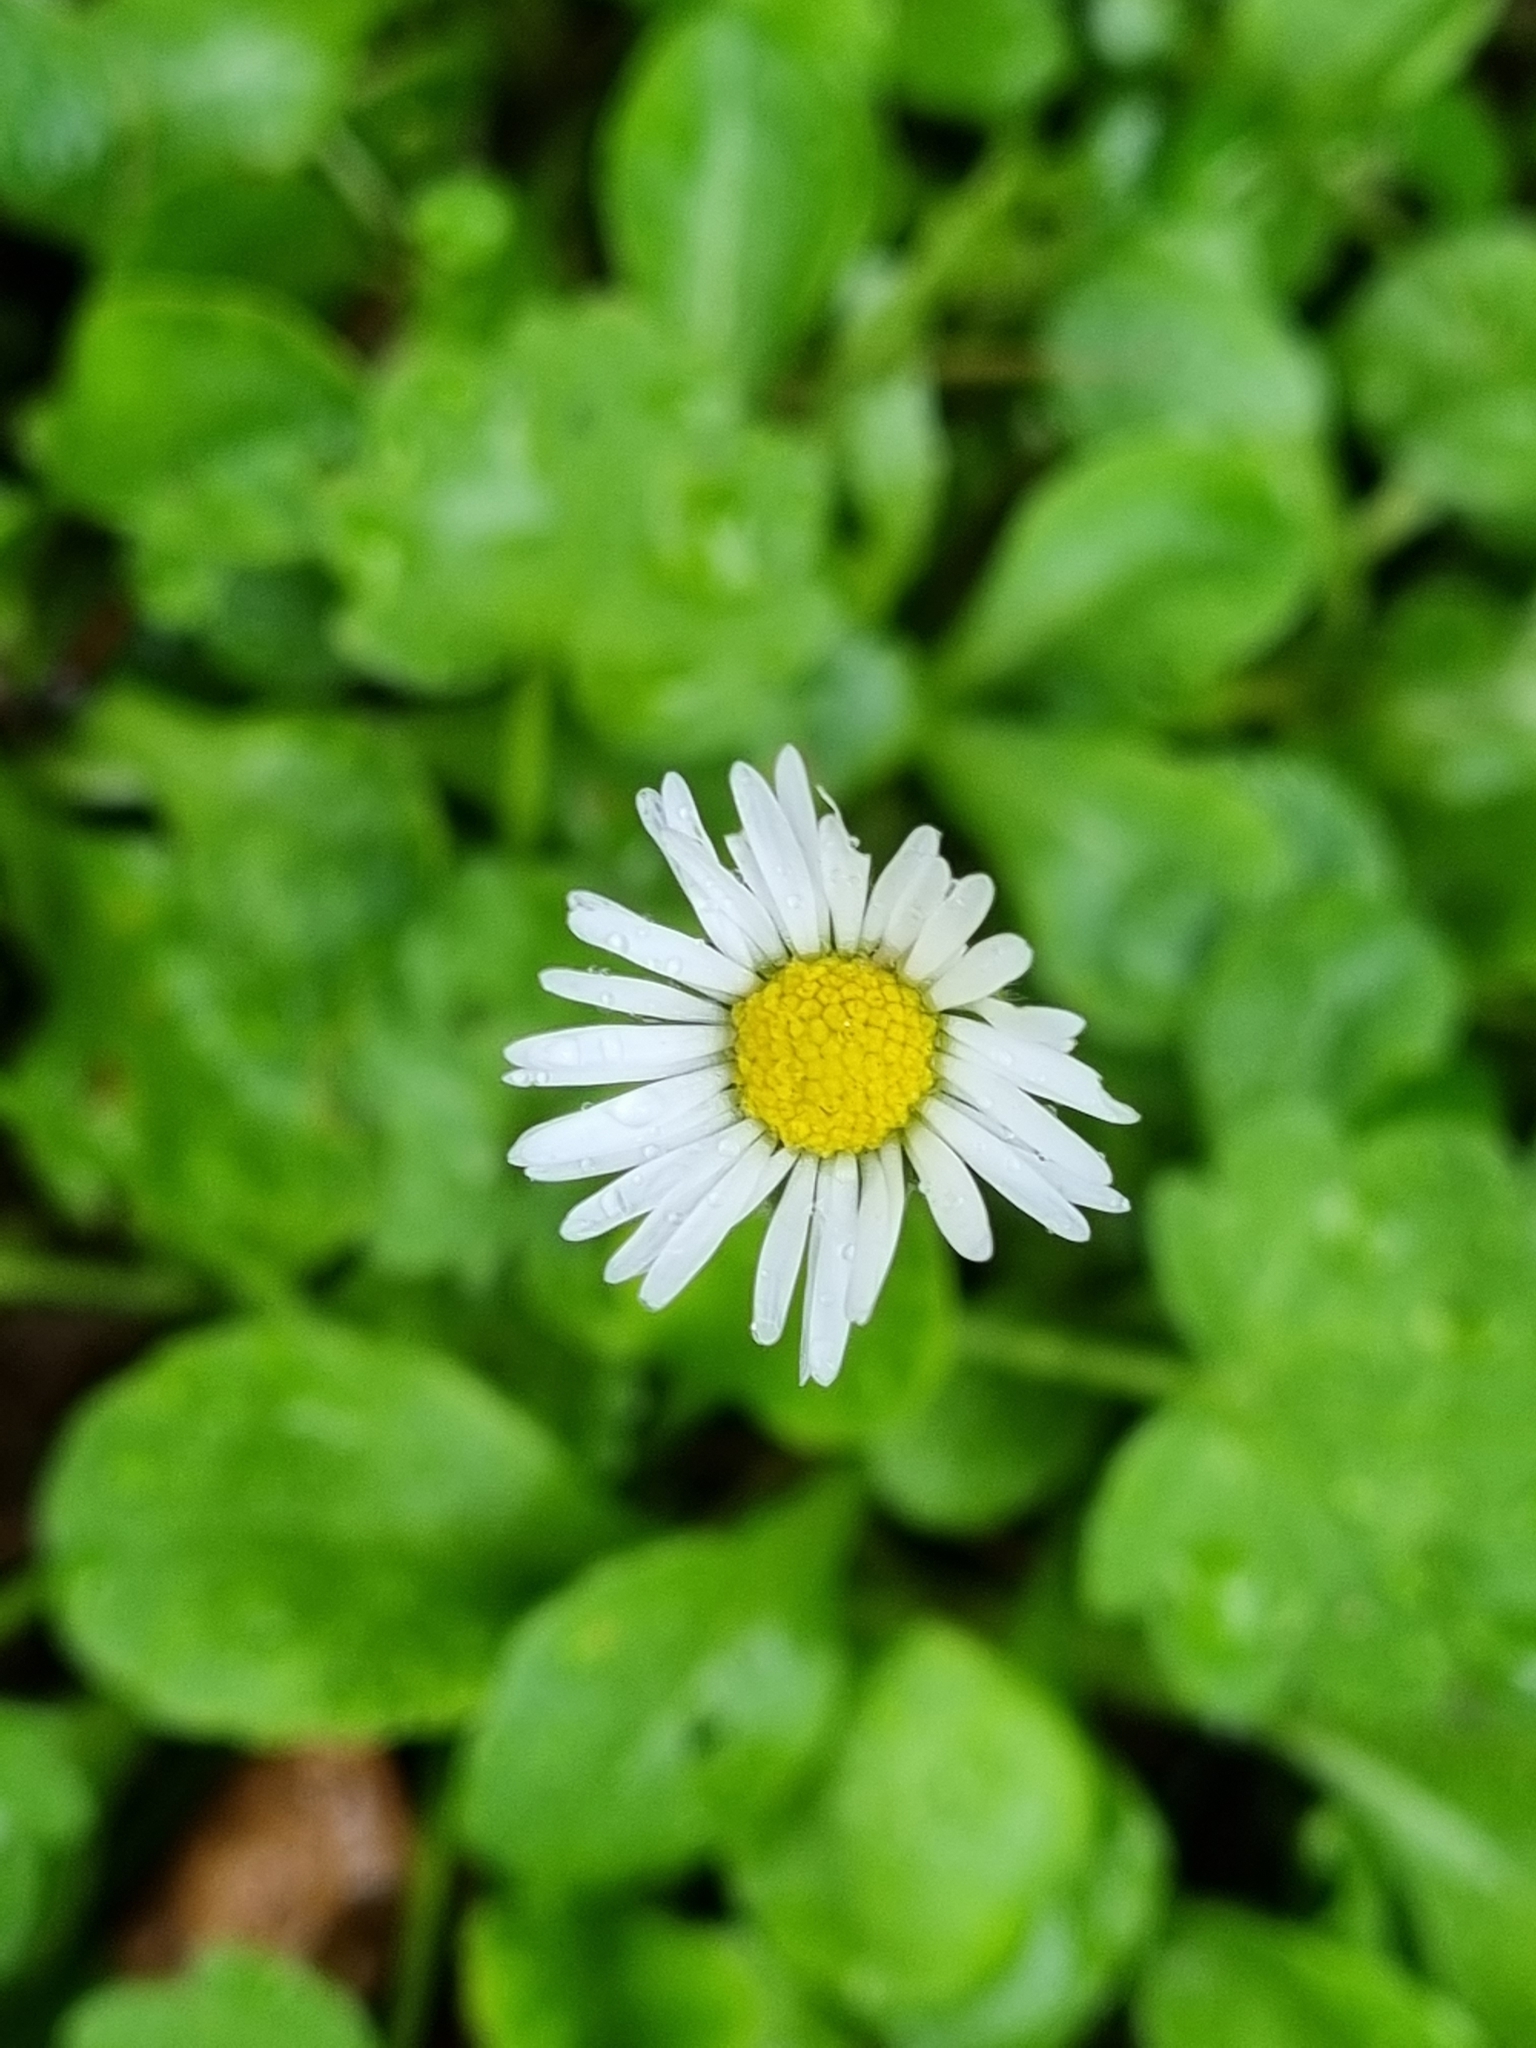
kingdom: Plantae
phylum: Tracheophyta
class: Magnoliopsida
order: Asterales
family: Asteraceae
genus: Bellis
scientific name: Bellis perennis
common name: Lawndaisy
